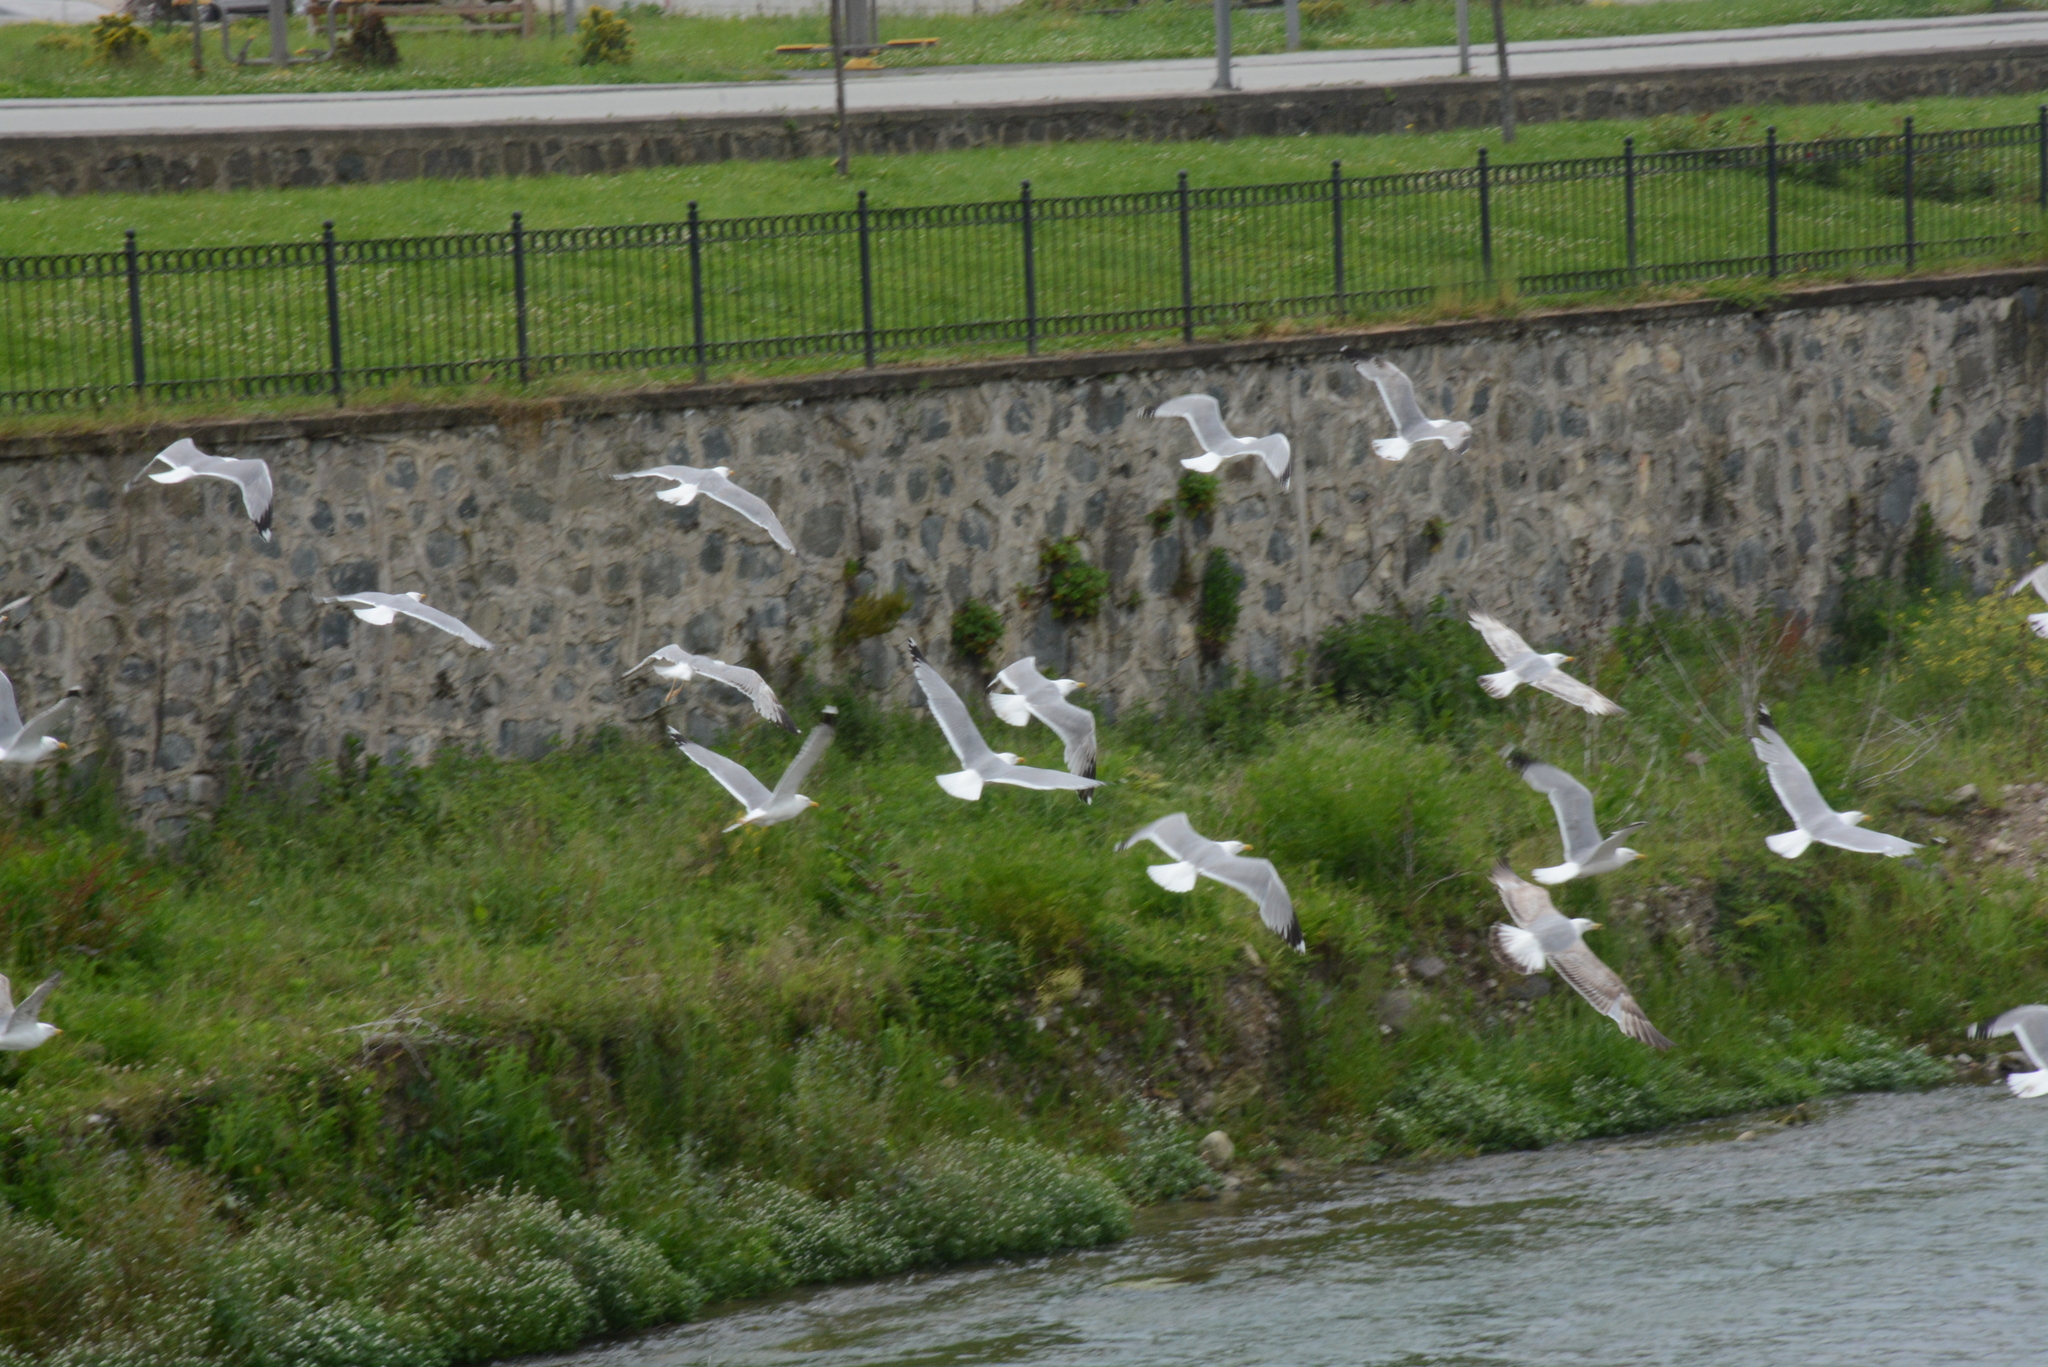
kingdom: Animalia
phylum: Chordata
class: Aves
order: Charadriiformes
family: Laridae
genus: Larus
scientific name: Larus michahellis
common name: Yellow-legged gull
